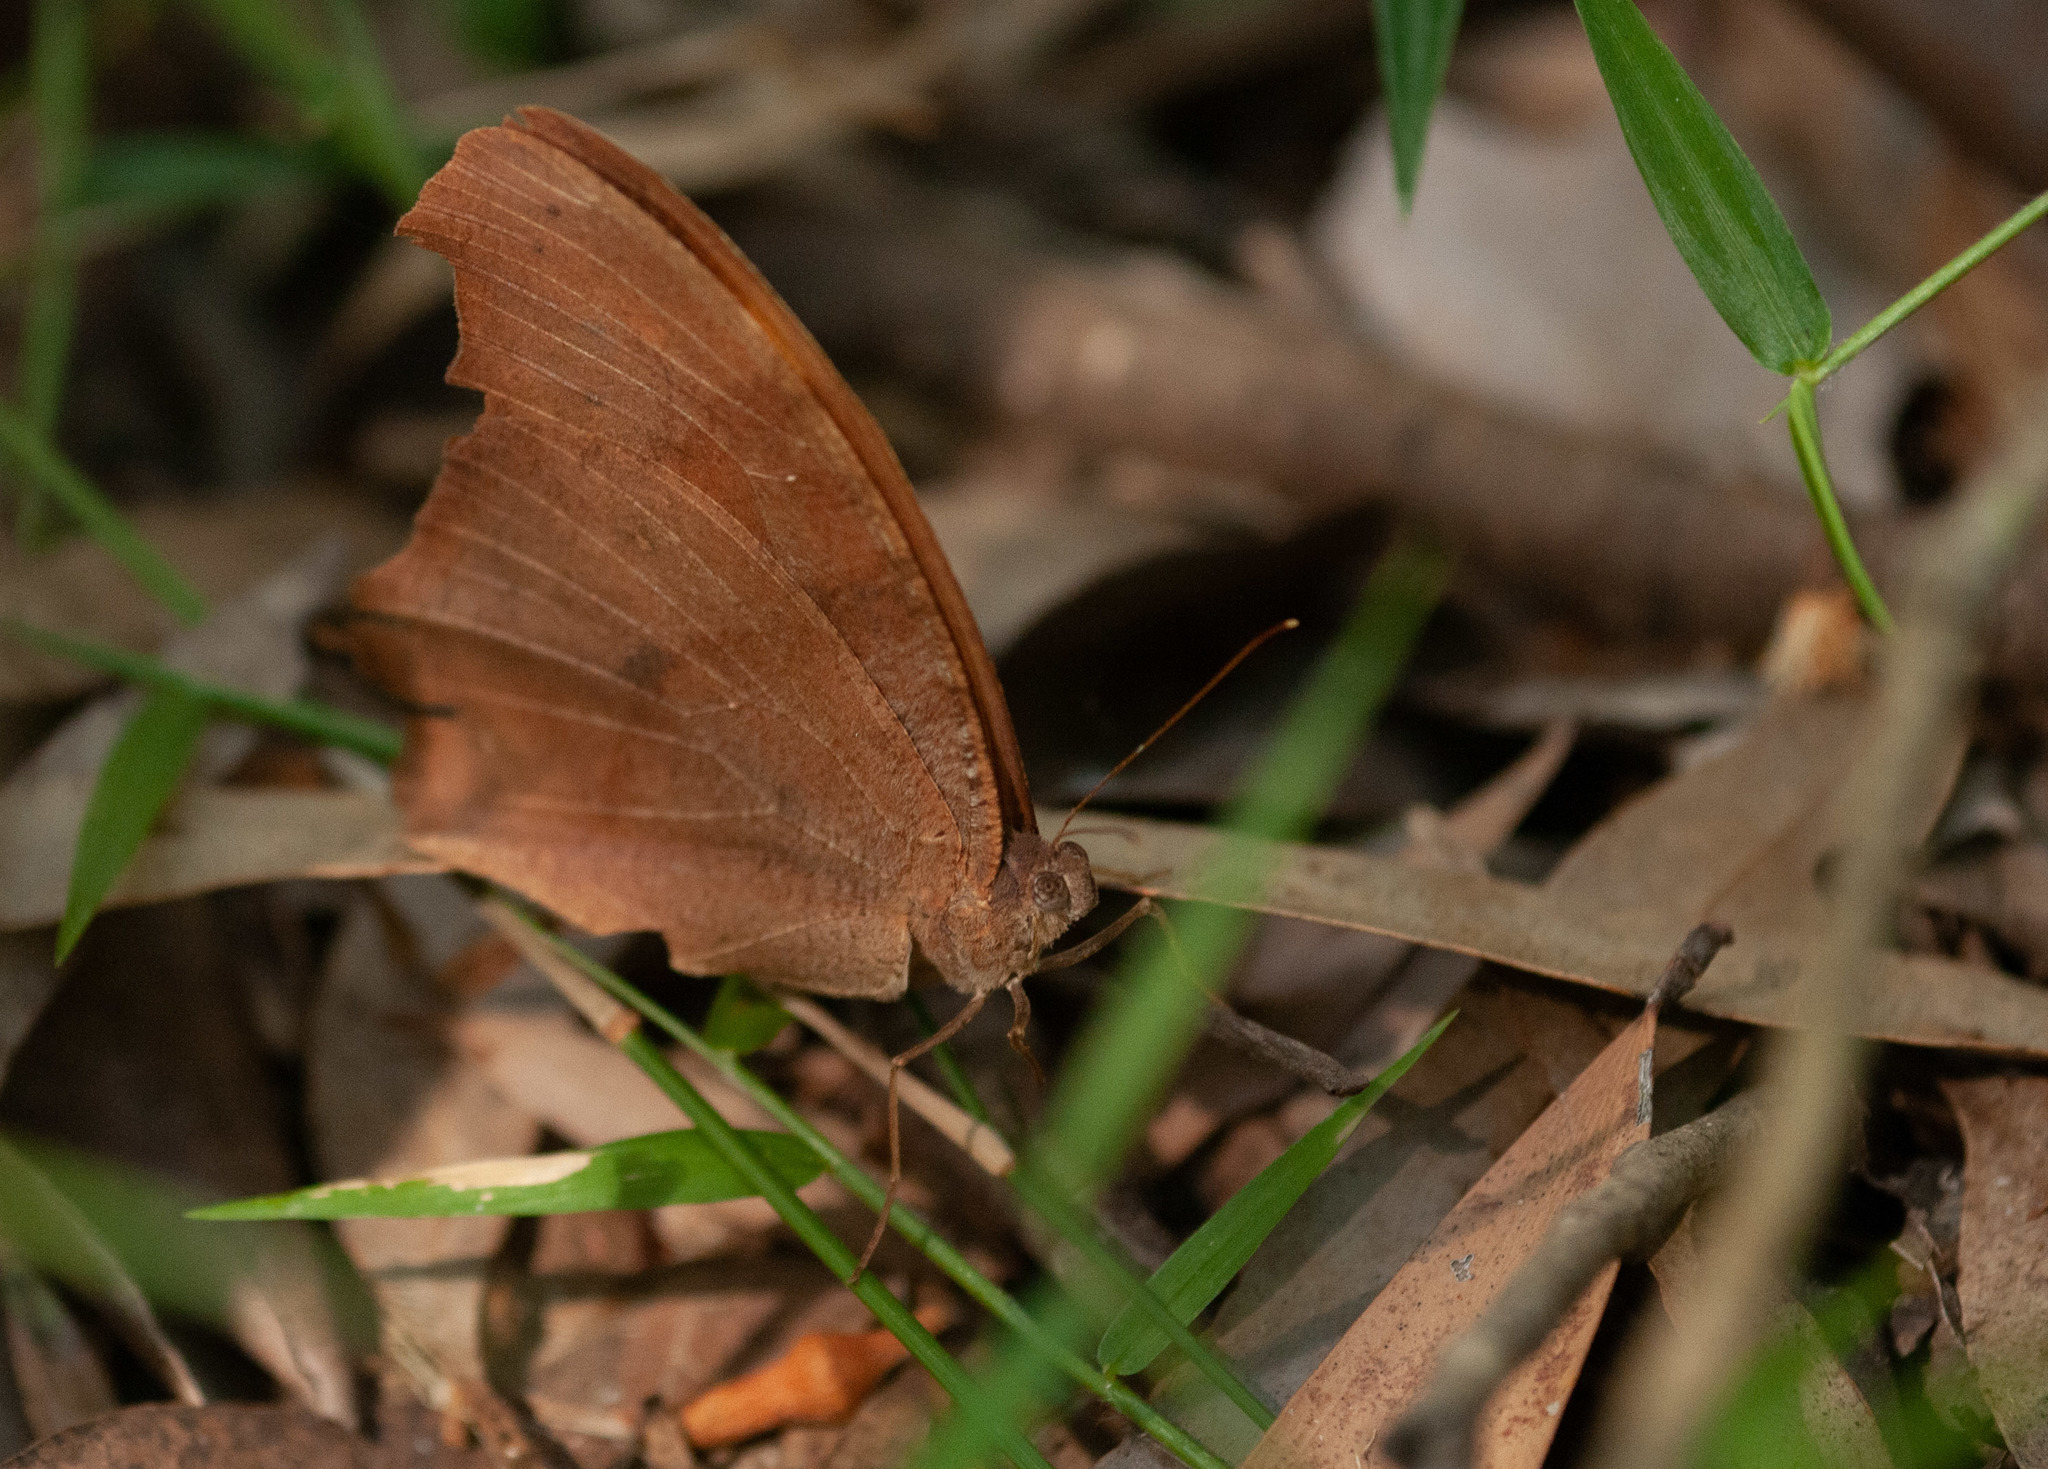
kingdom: Animalia
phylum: Arthropoda
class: Insecta
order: Lepidoptera
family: Nymphalidae
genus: Melanitis
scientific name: Melanitis leda
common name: Twilight brown
